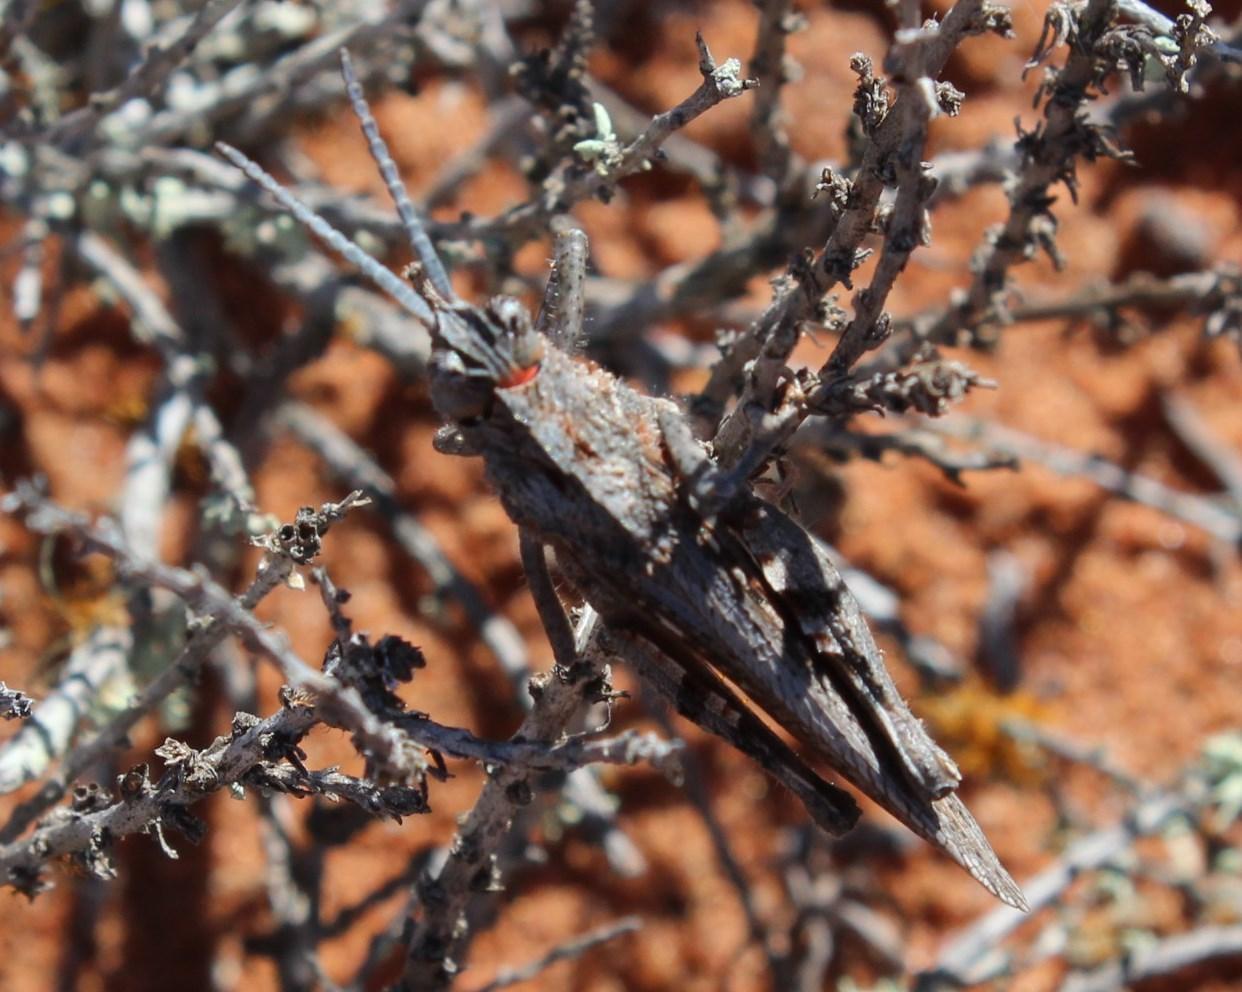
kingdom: Animalia
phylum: Arthropoda
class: Insecta
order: Orthoptera
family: Pamphagidae
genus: Adephagus
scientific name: Adephagus cristatus
